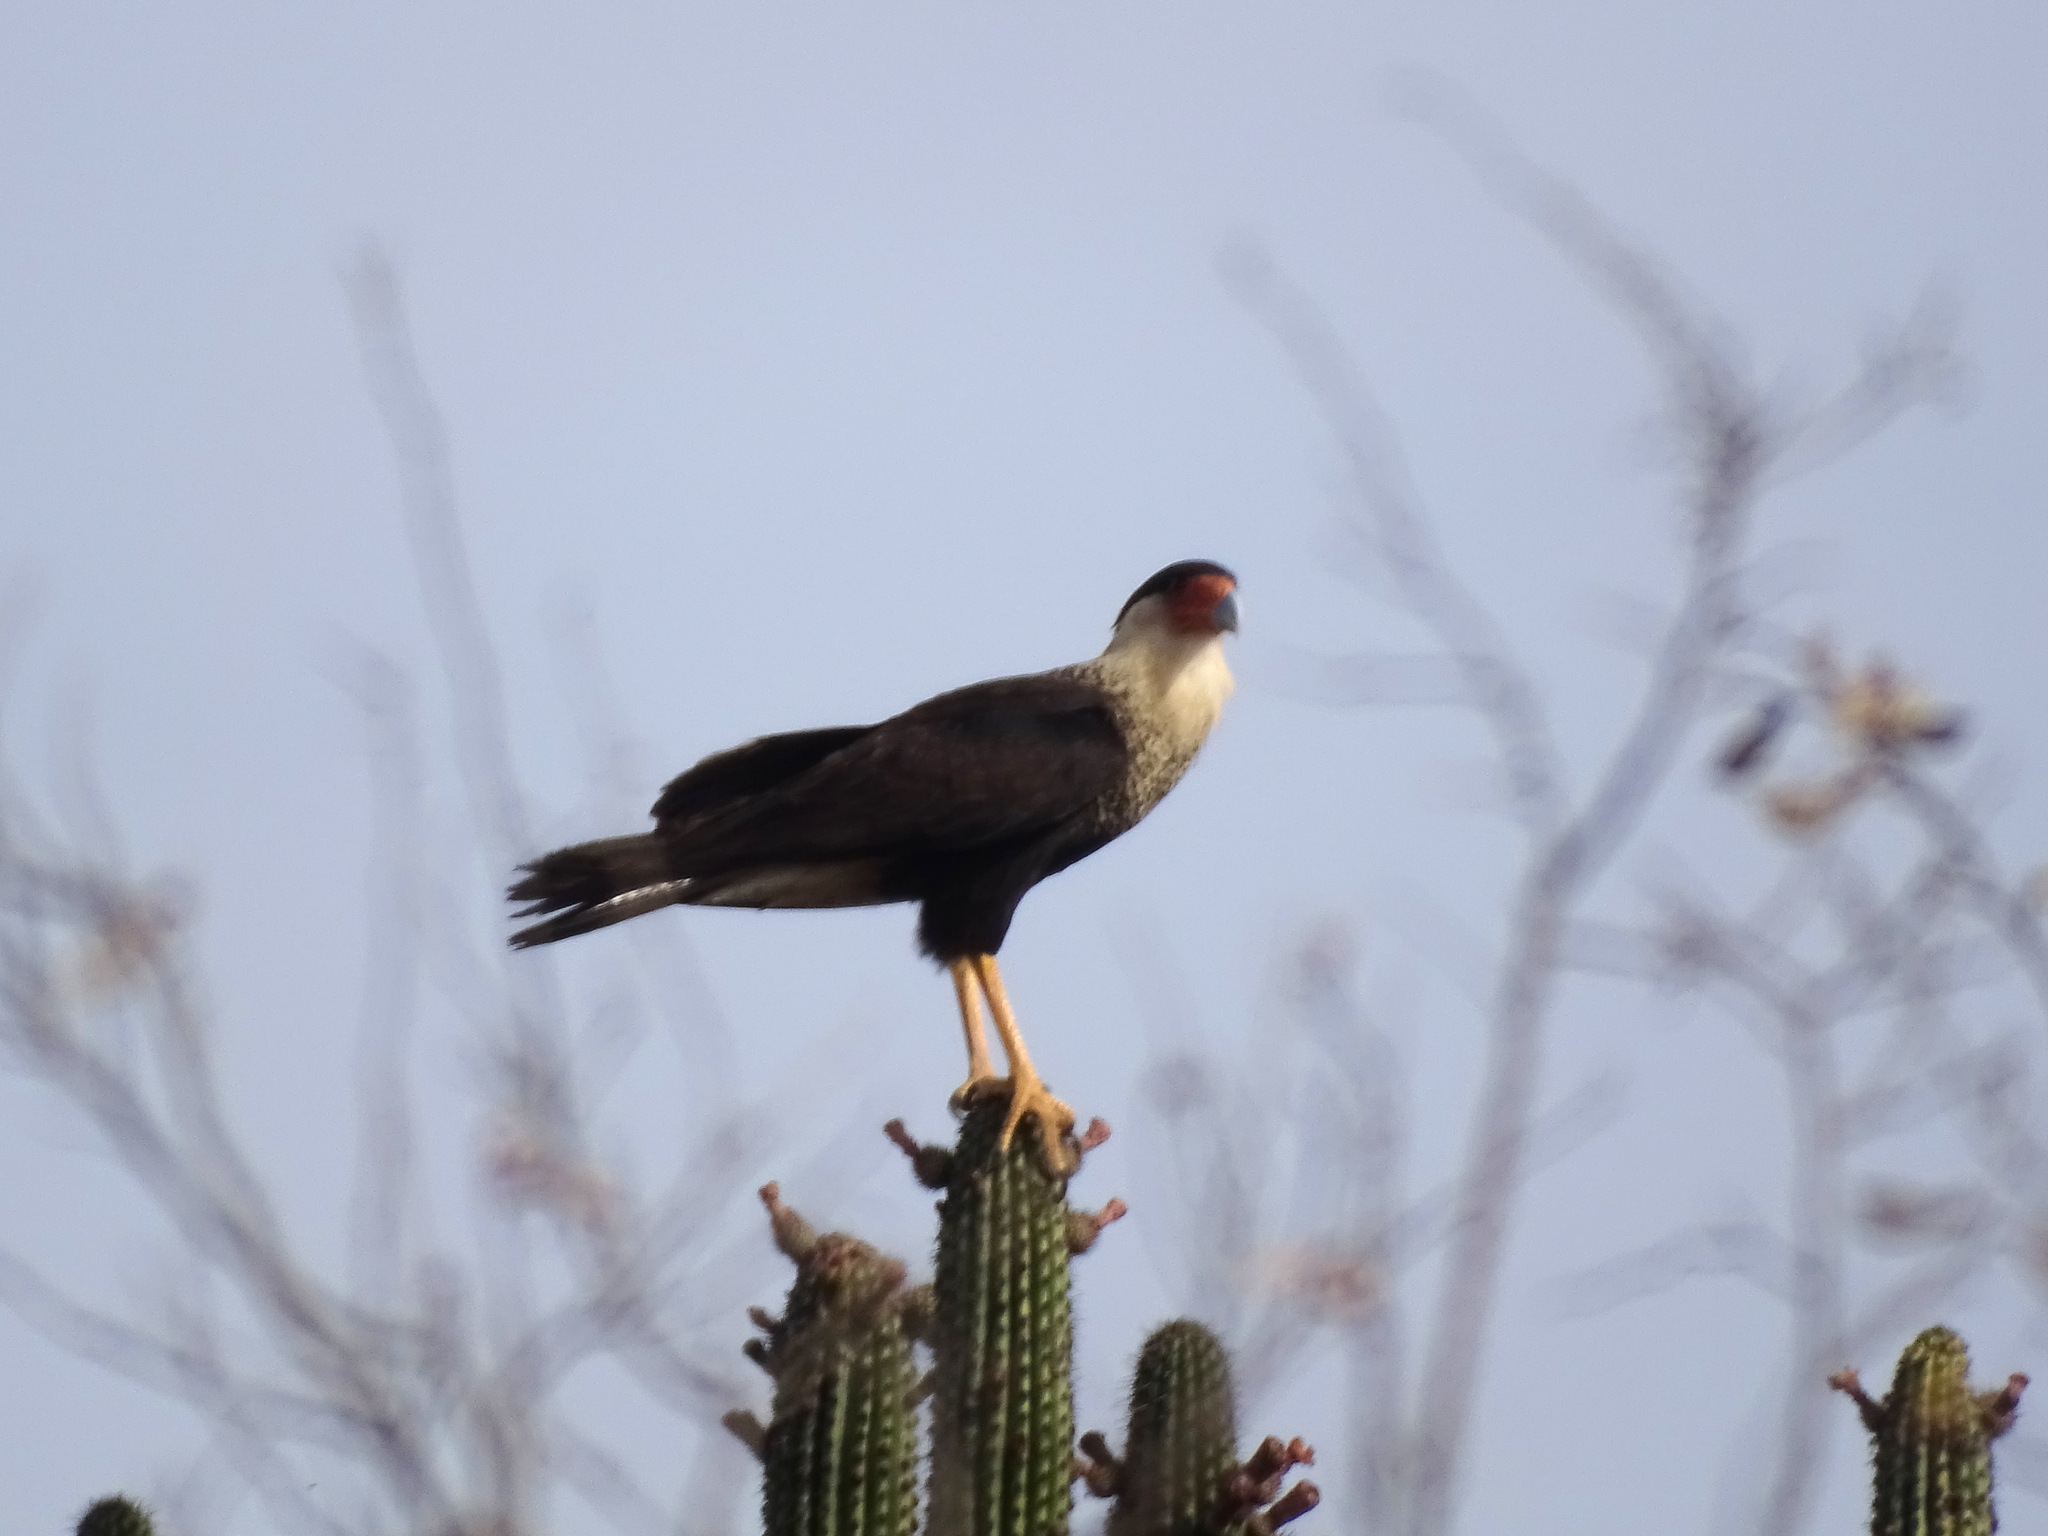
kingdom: Animalia
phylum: Chordata
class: Aves
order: Falconiformes
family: Falconidae
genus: Caracara
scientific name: Caracara plancus
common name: Southern caracara
